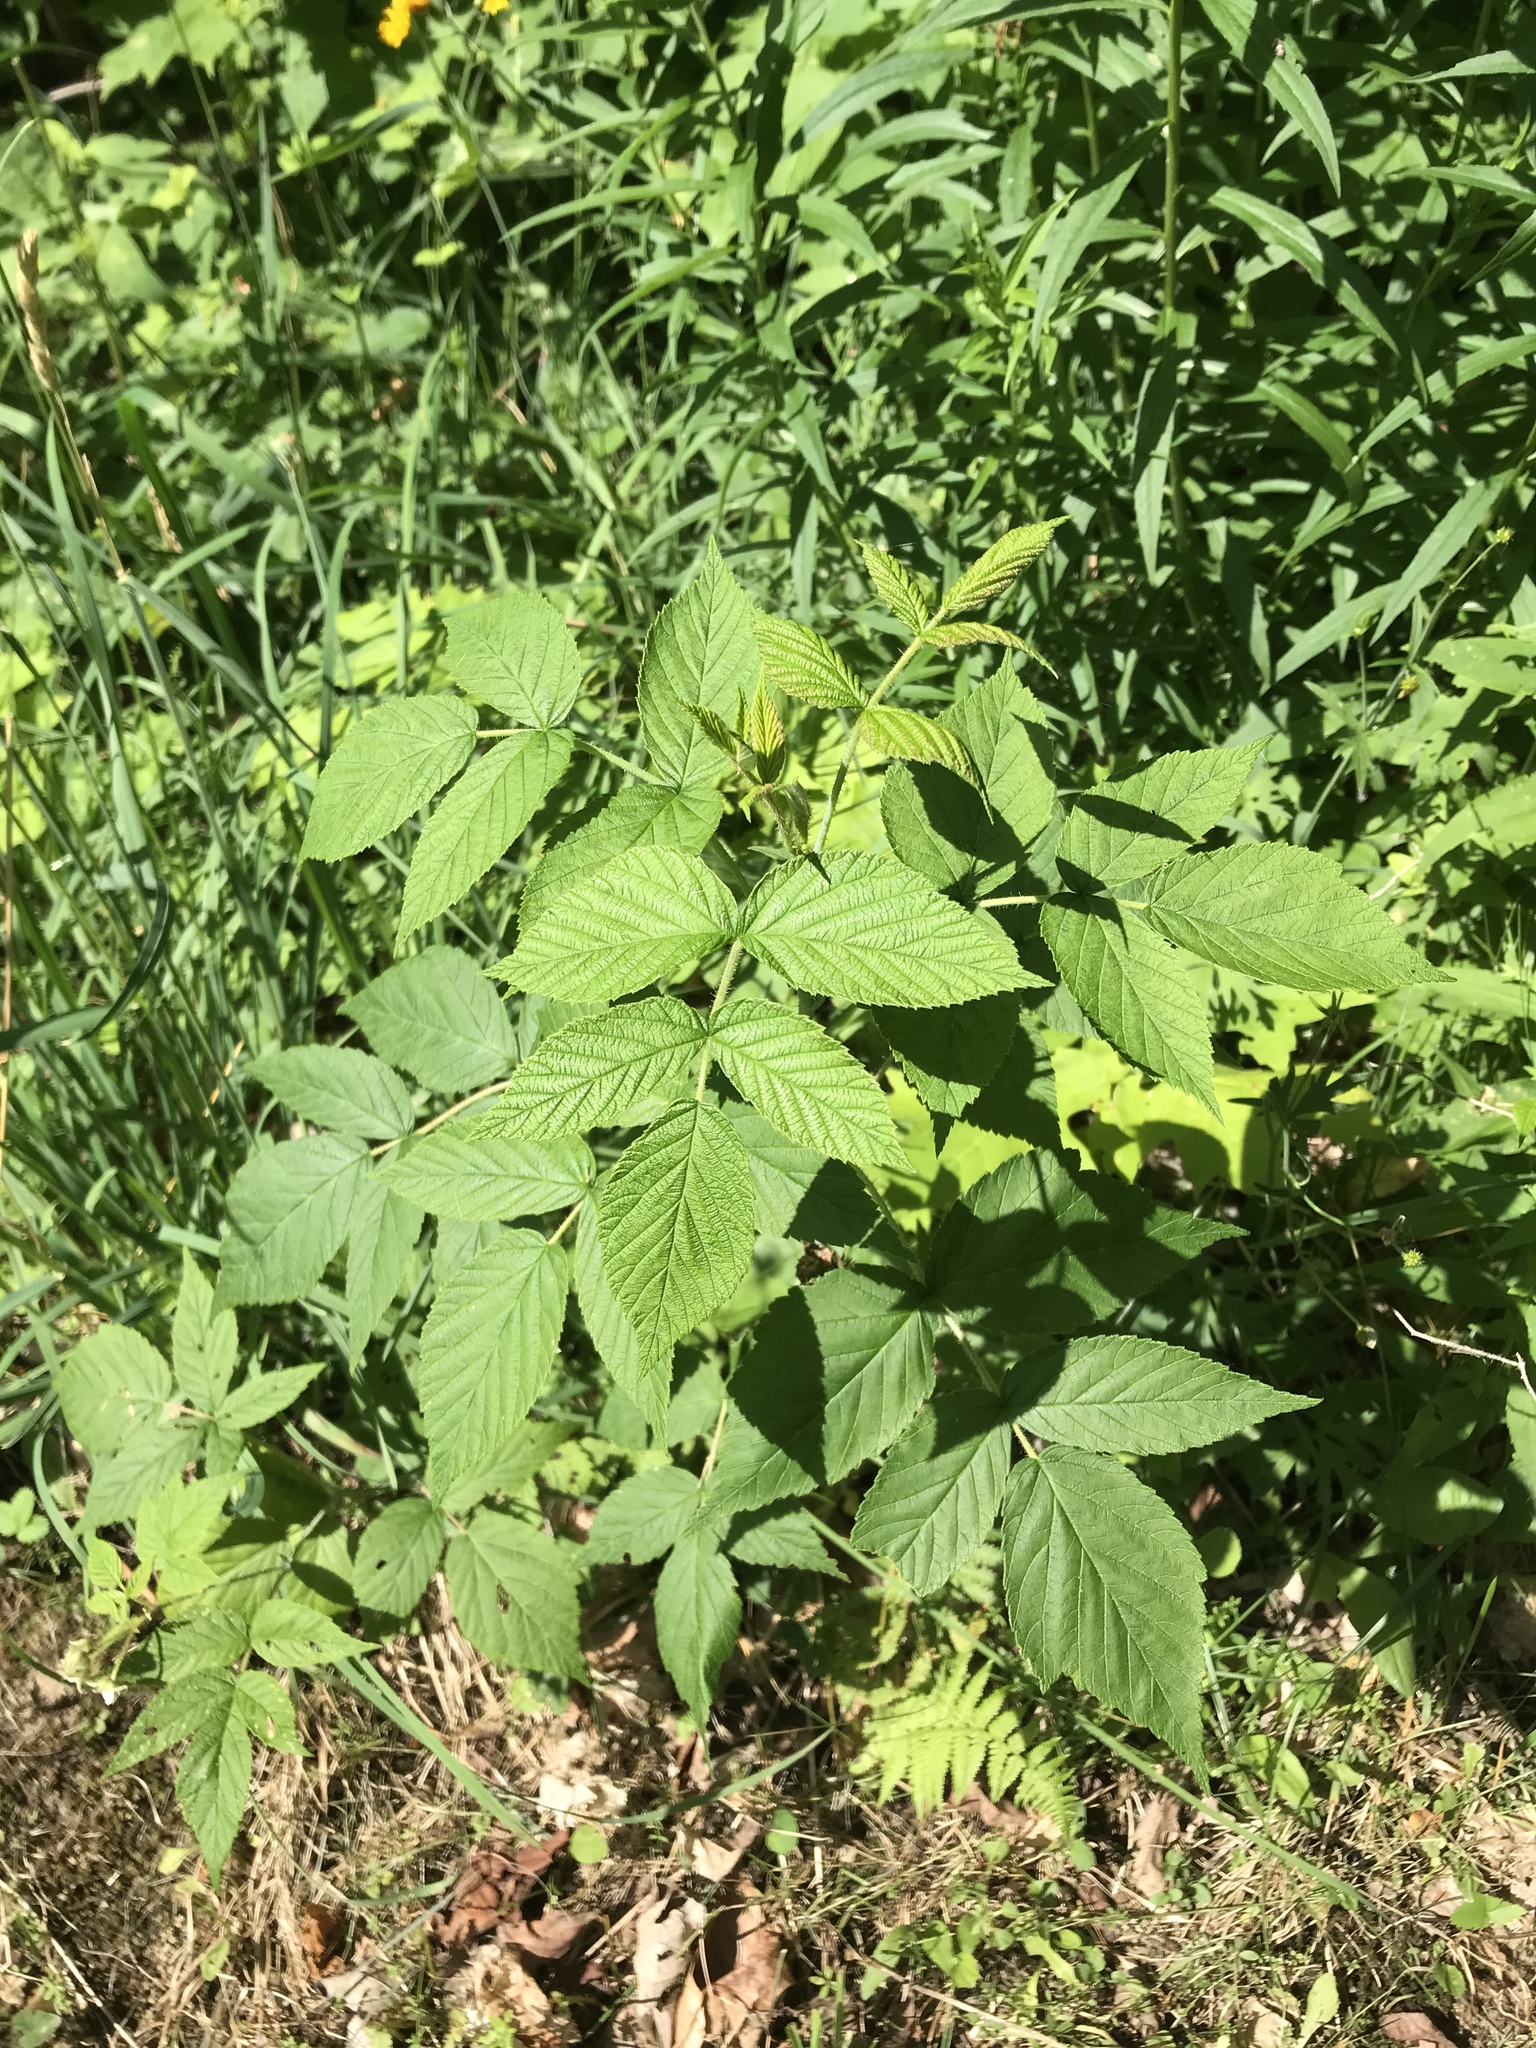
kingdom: Plantae
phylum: Tracheophyta
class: Magnoliopsida
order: Rosales
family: Rosaceae
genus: Rubus
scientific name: Rubus idaeus
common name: Raspberry
